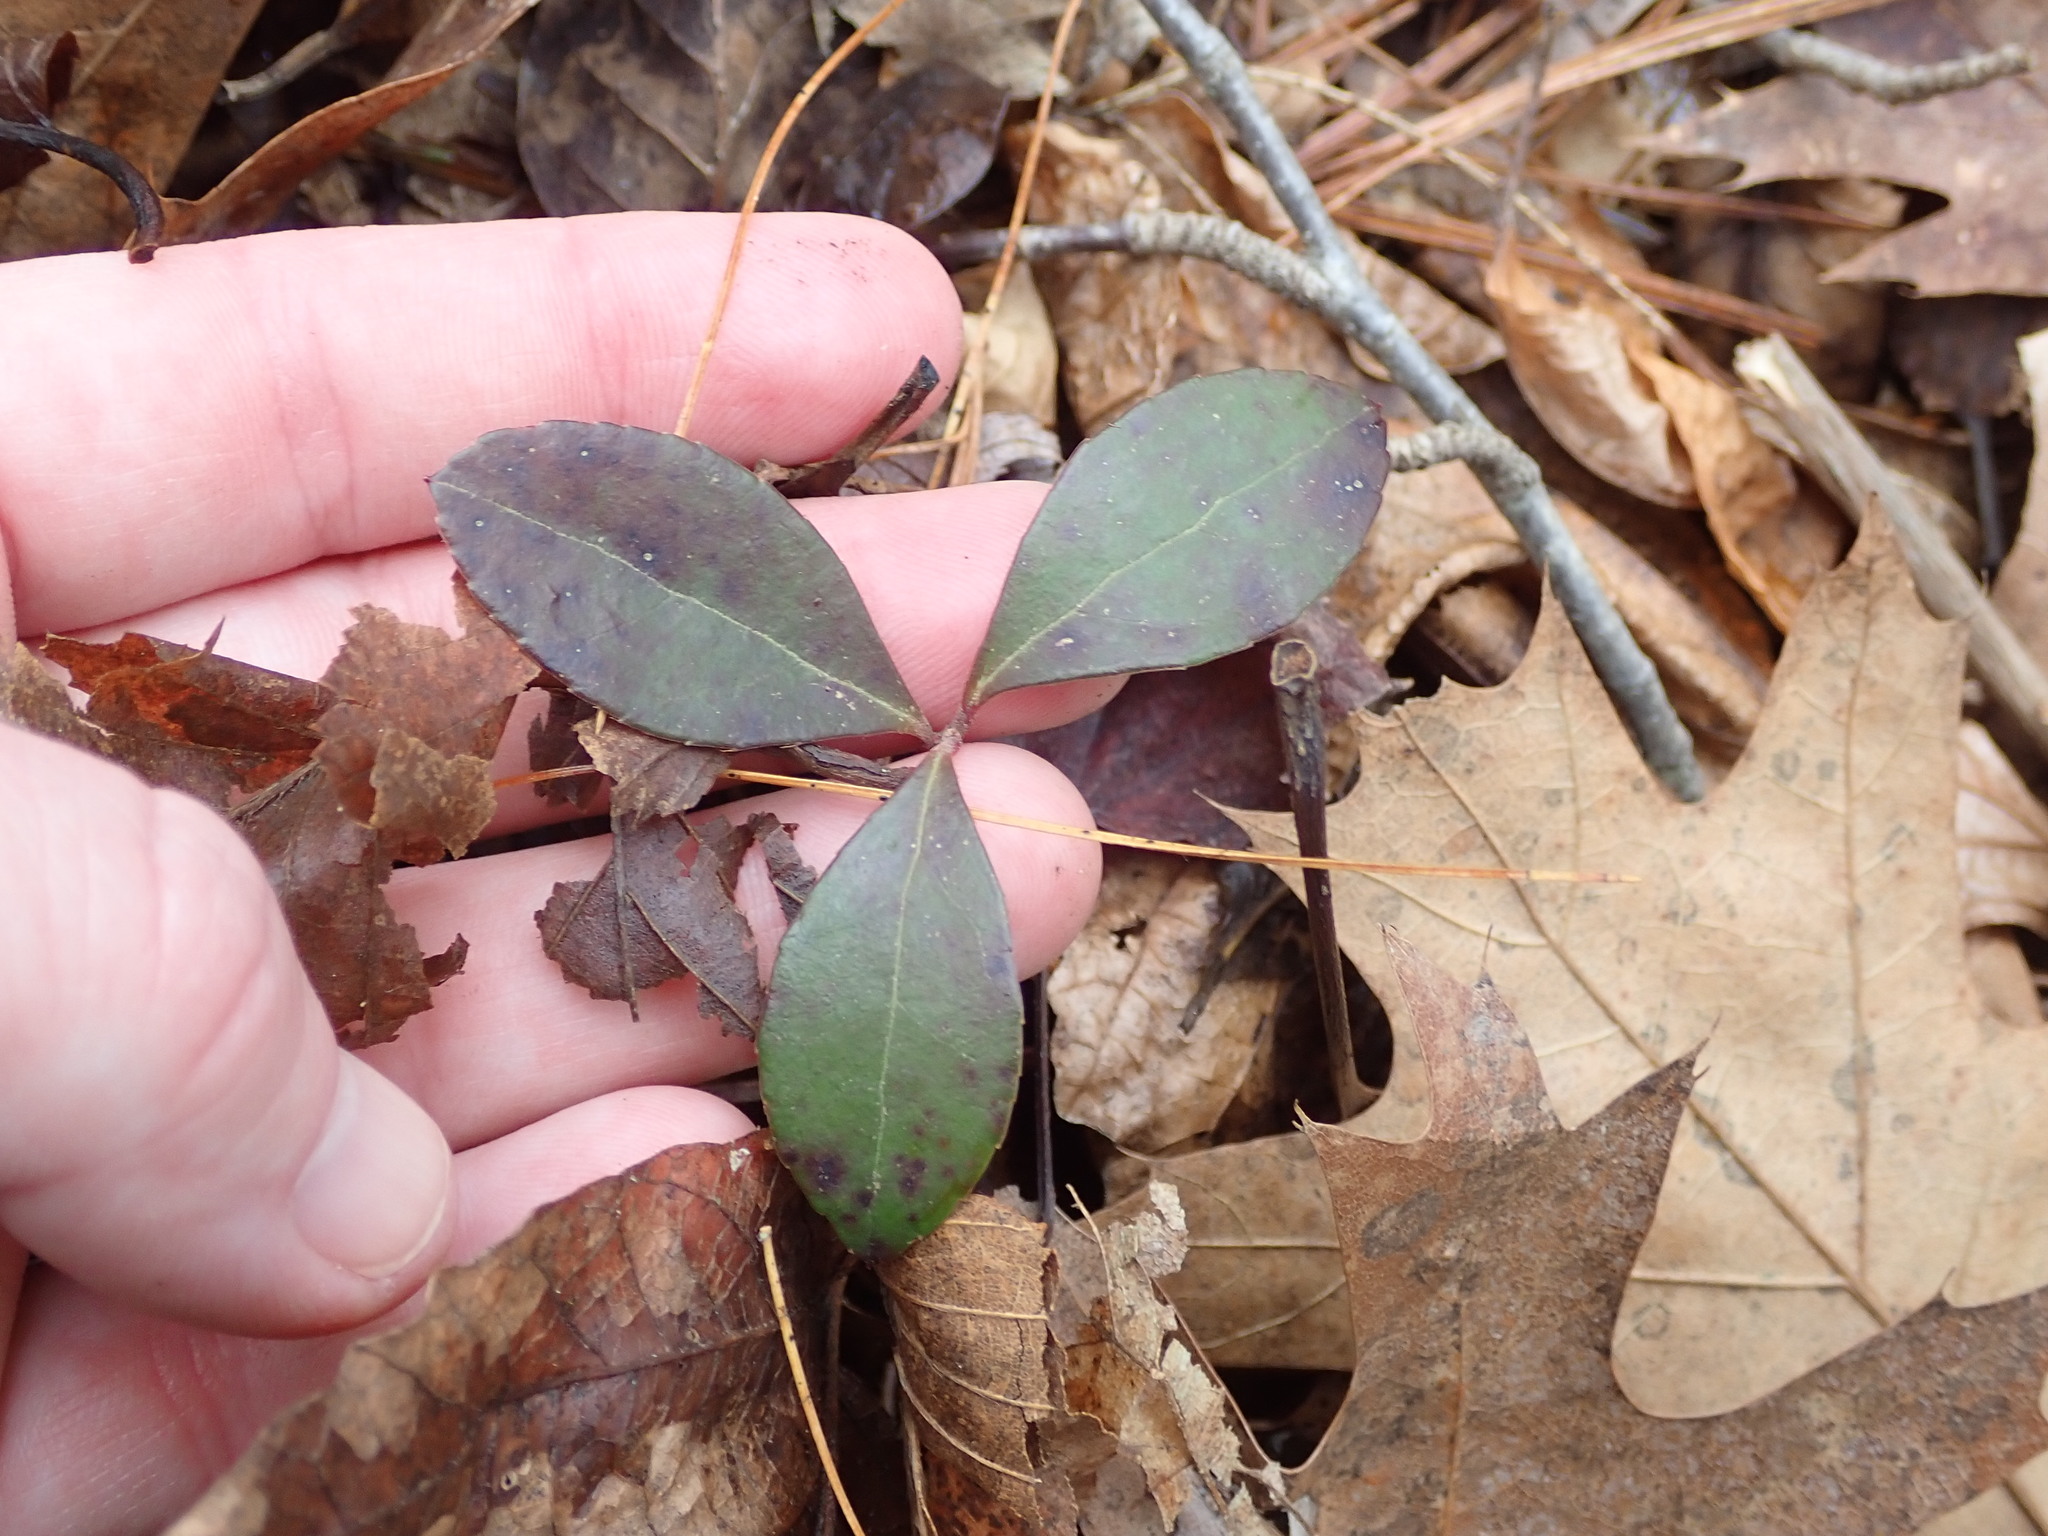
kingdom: Plantae
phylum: Tracheophyta
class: Magnoliopsida
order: Ericales
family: Ericaceae
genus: Gaultheria
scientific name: Gaultheria procumbens
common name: Checkerberry
